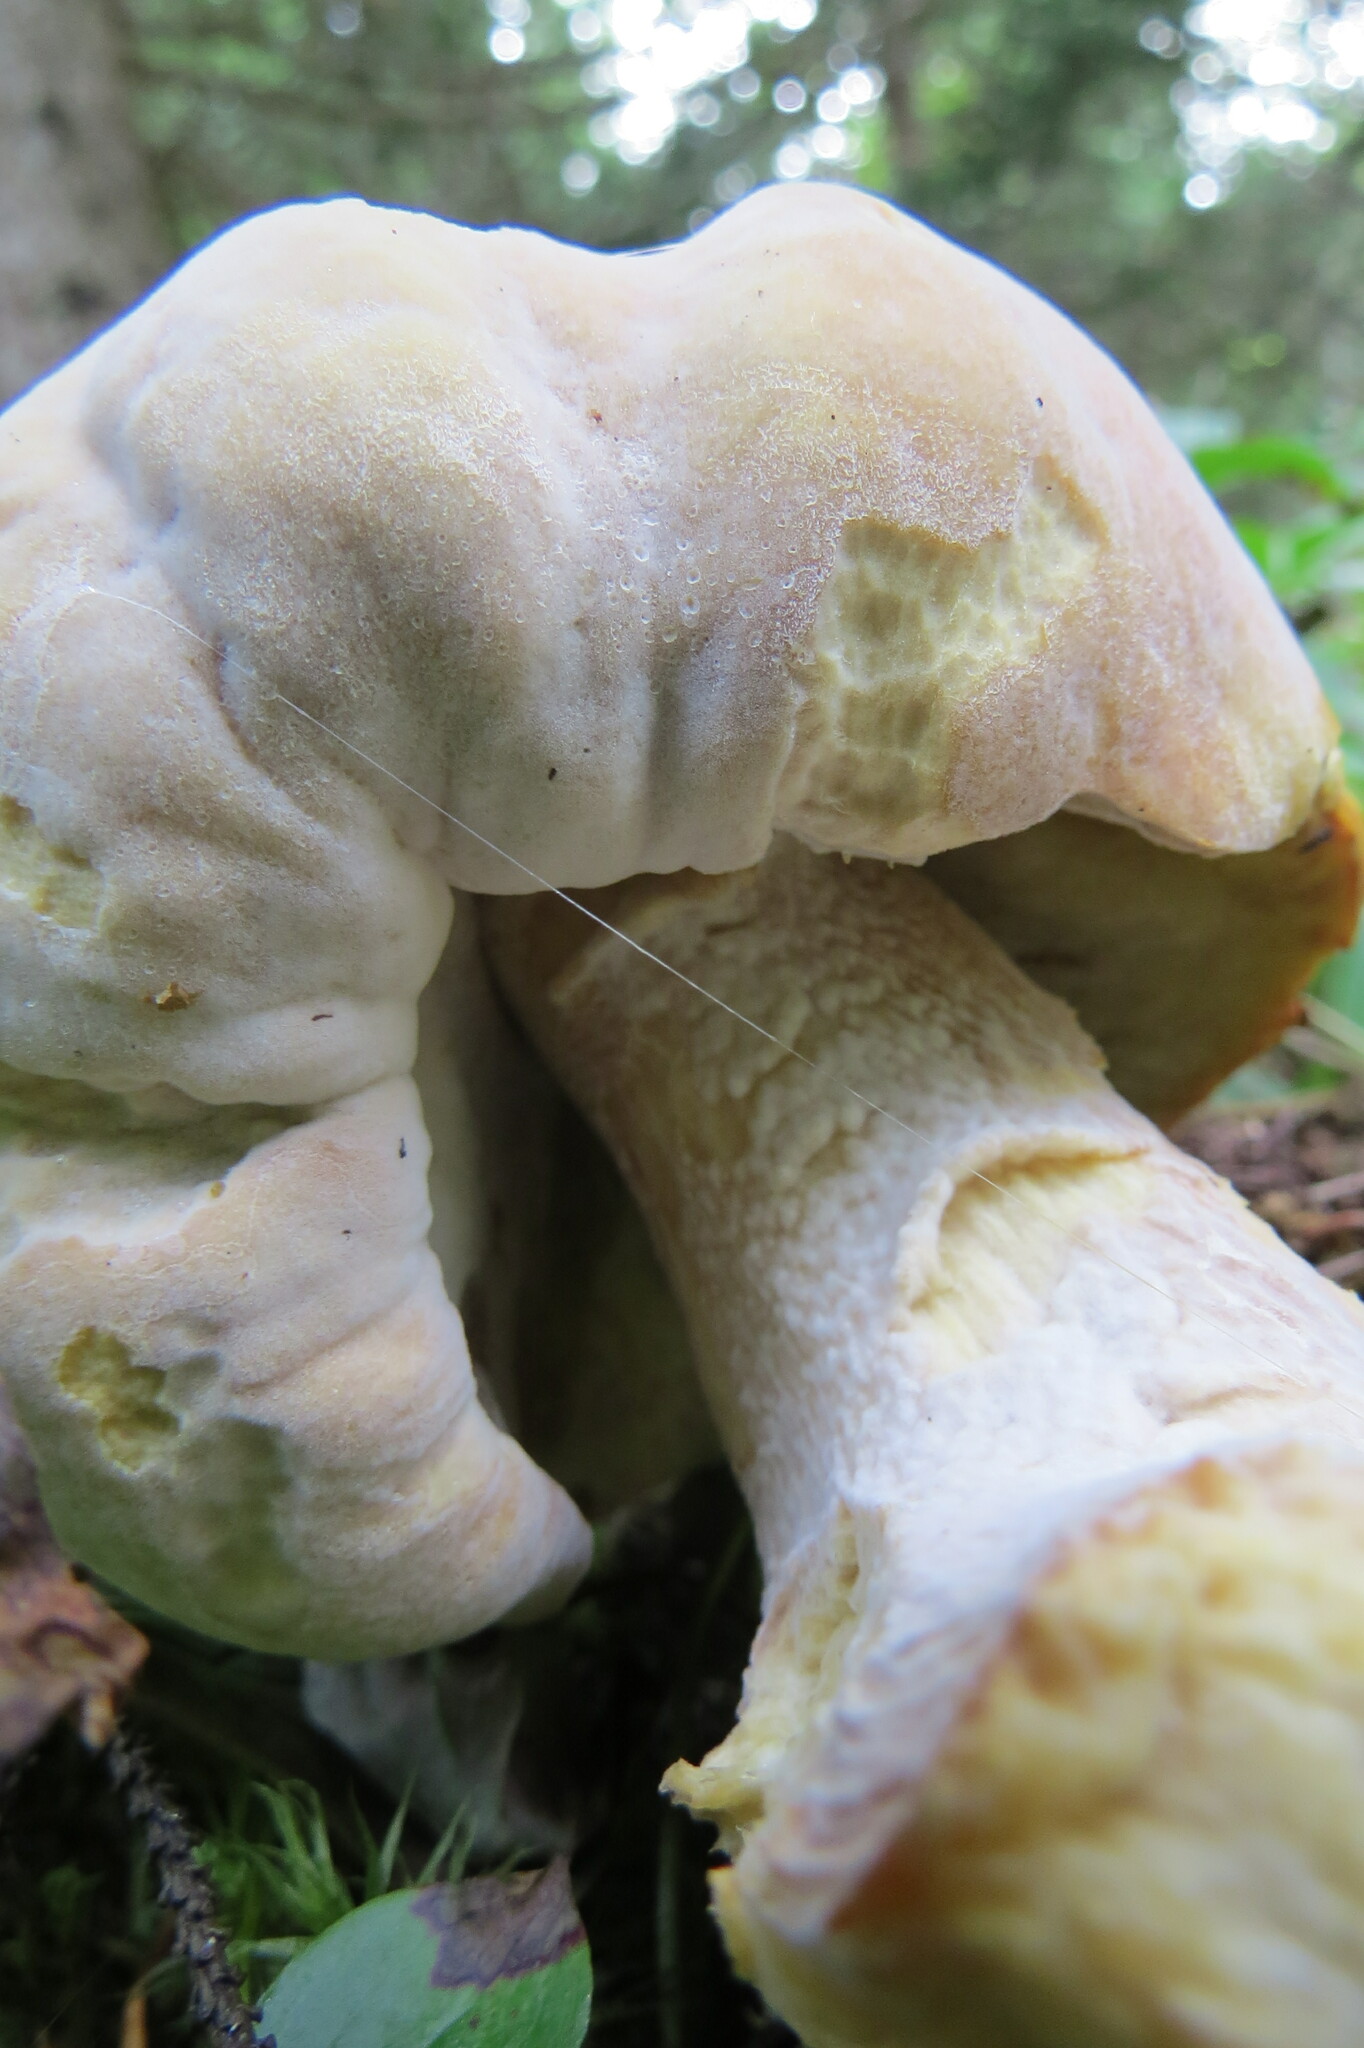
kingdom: Fungi
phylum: Ascomycota
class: Sordariomycetes
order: Hypocreales
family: Hypocreaceae
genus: Hypomyces
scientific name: Hypomyces hyalinus
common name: Amanita mold
